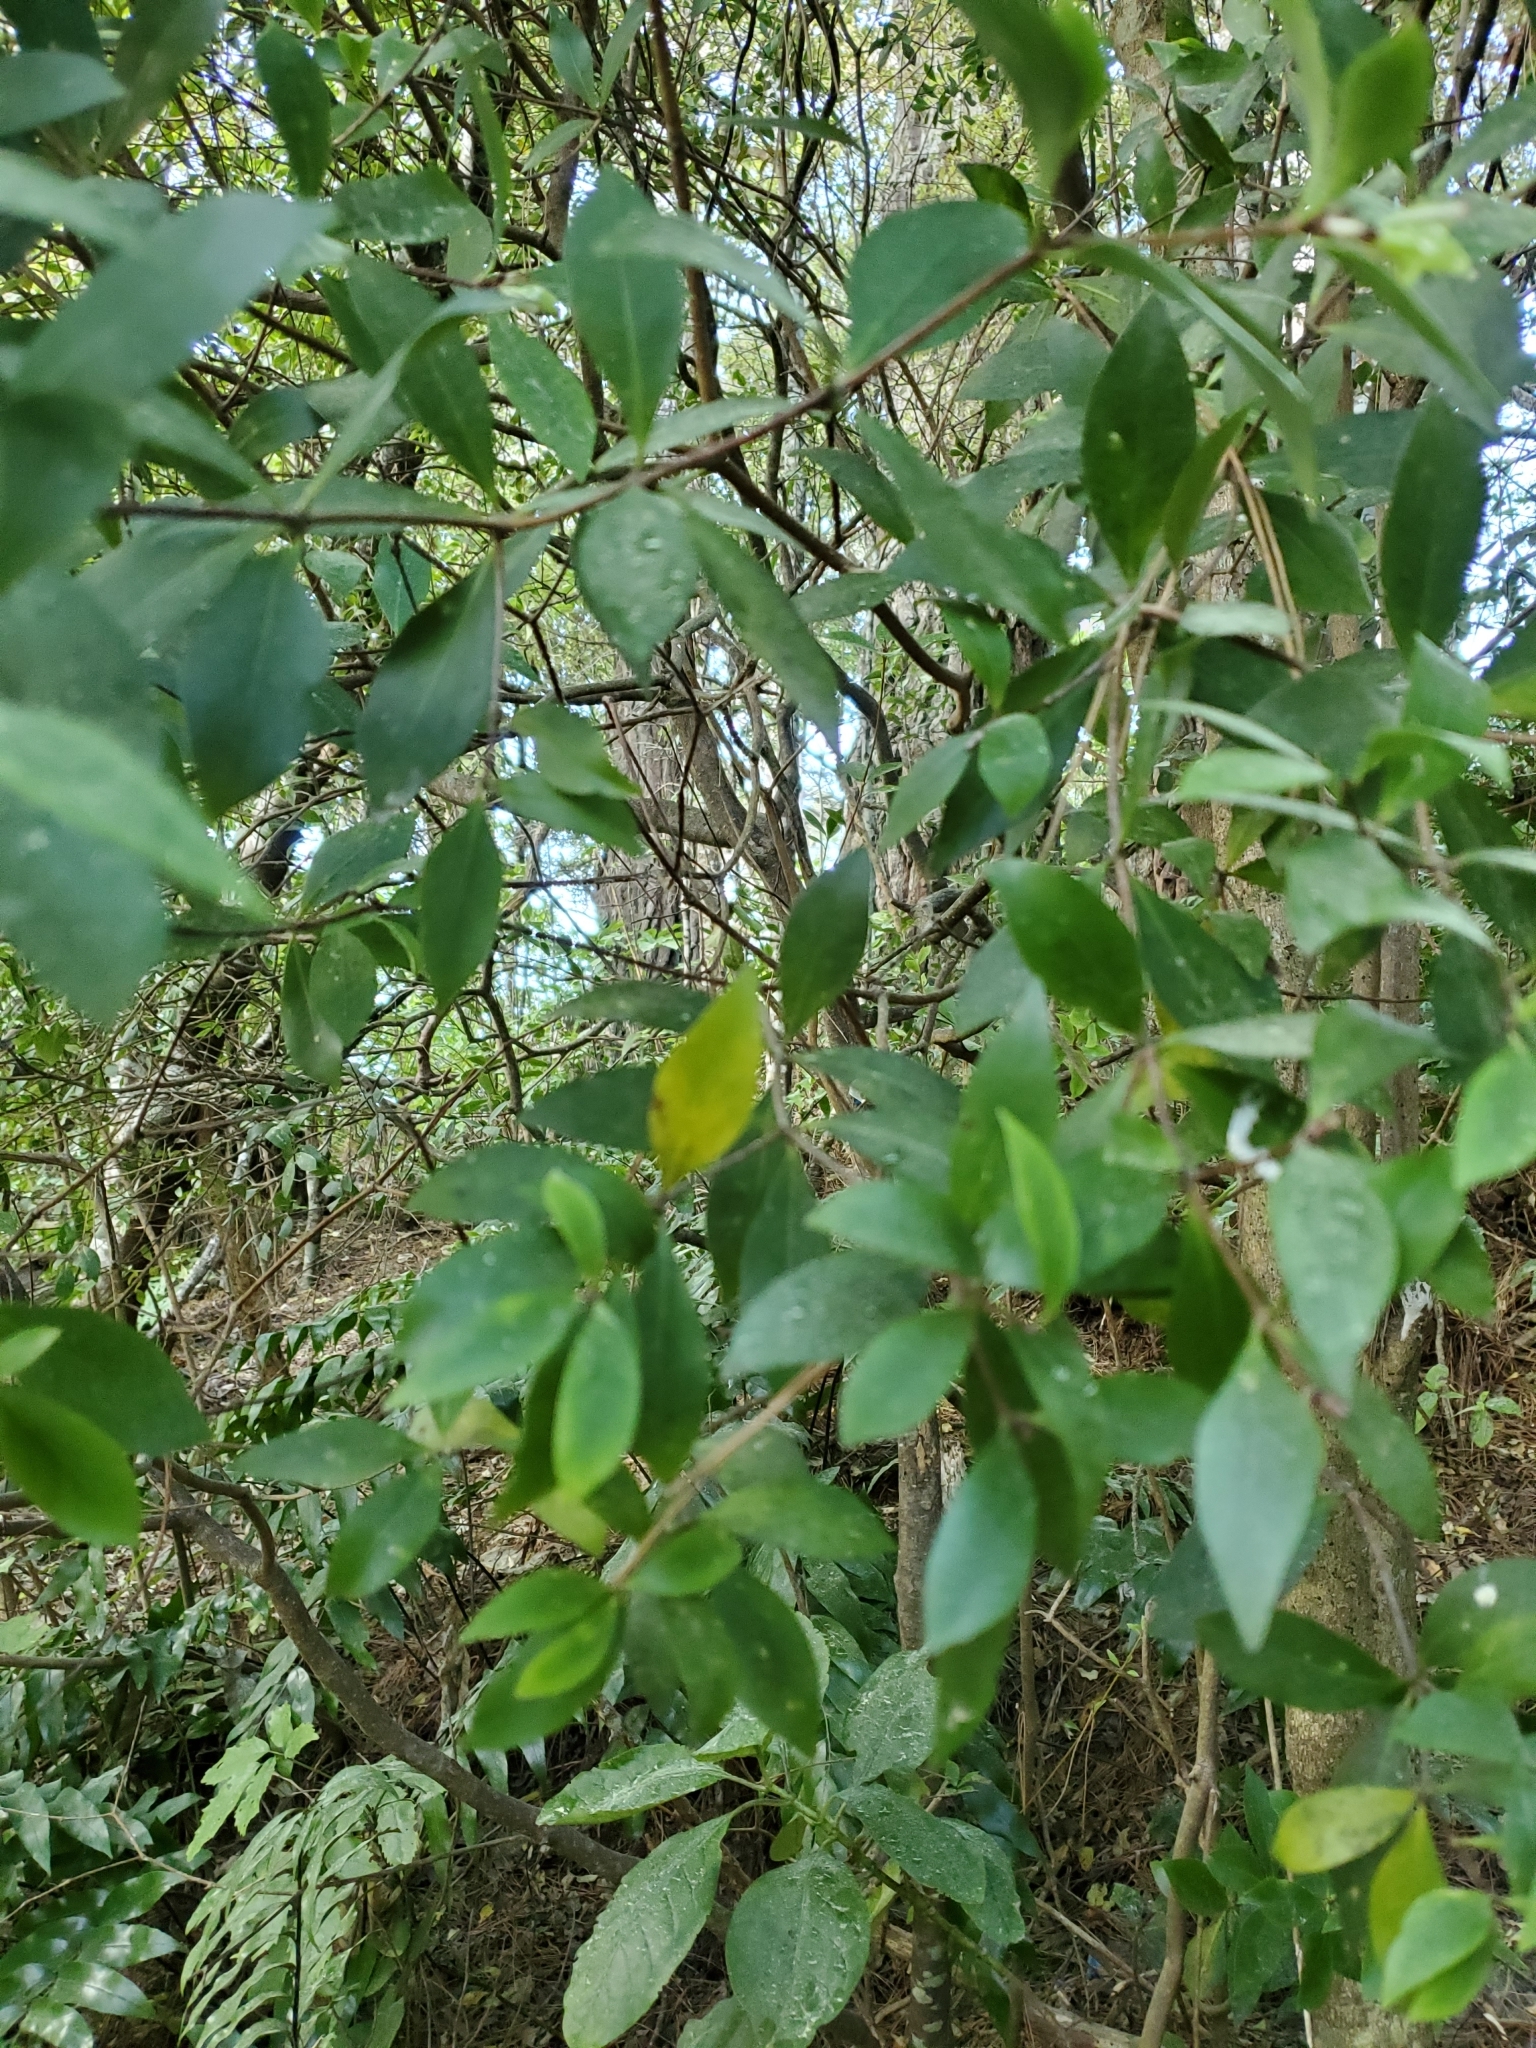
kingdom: Plantae
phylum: Tracheophyta
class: Magnoliopsida
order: Apiales
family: Pittosporaceae
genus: Pittosporum
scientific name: Pittosporum cornifolium
